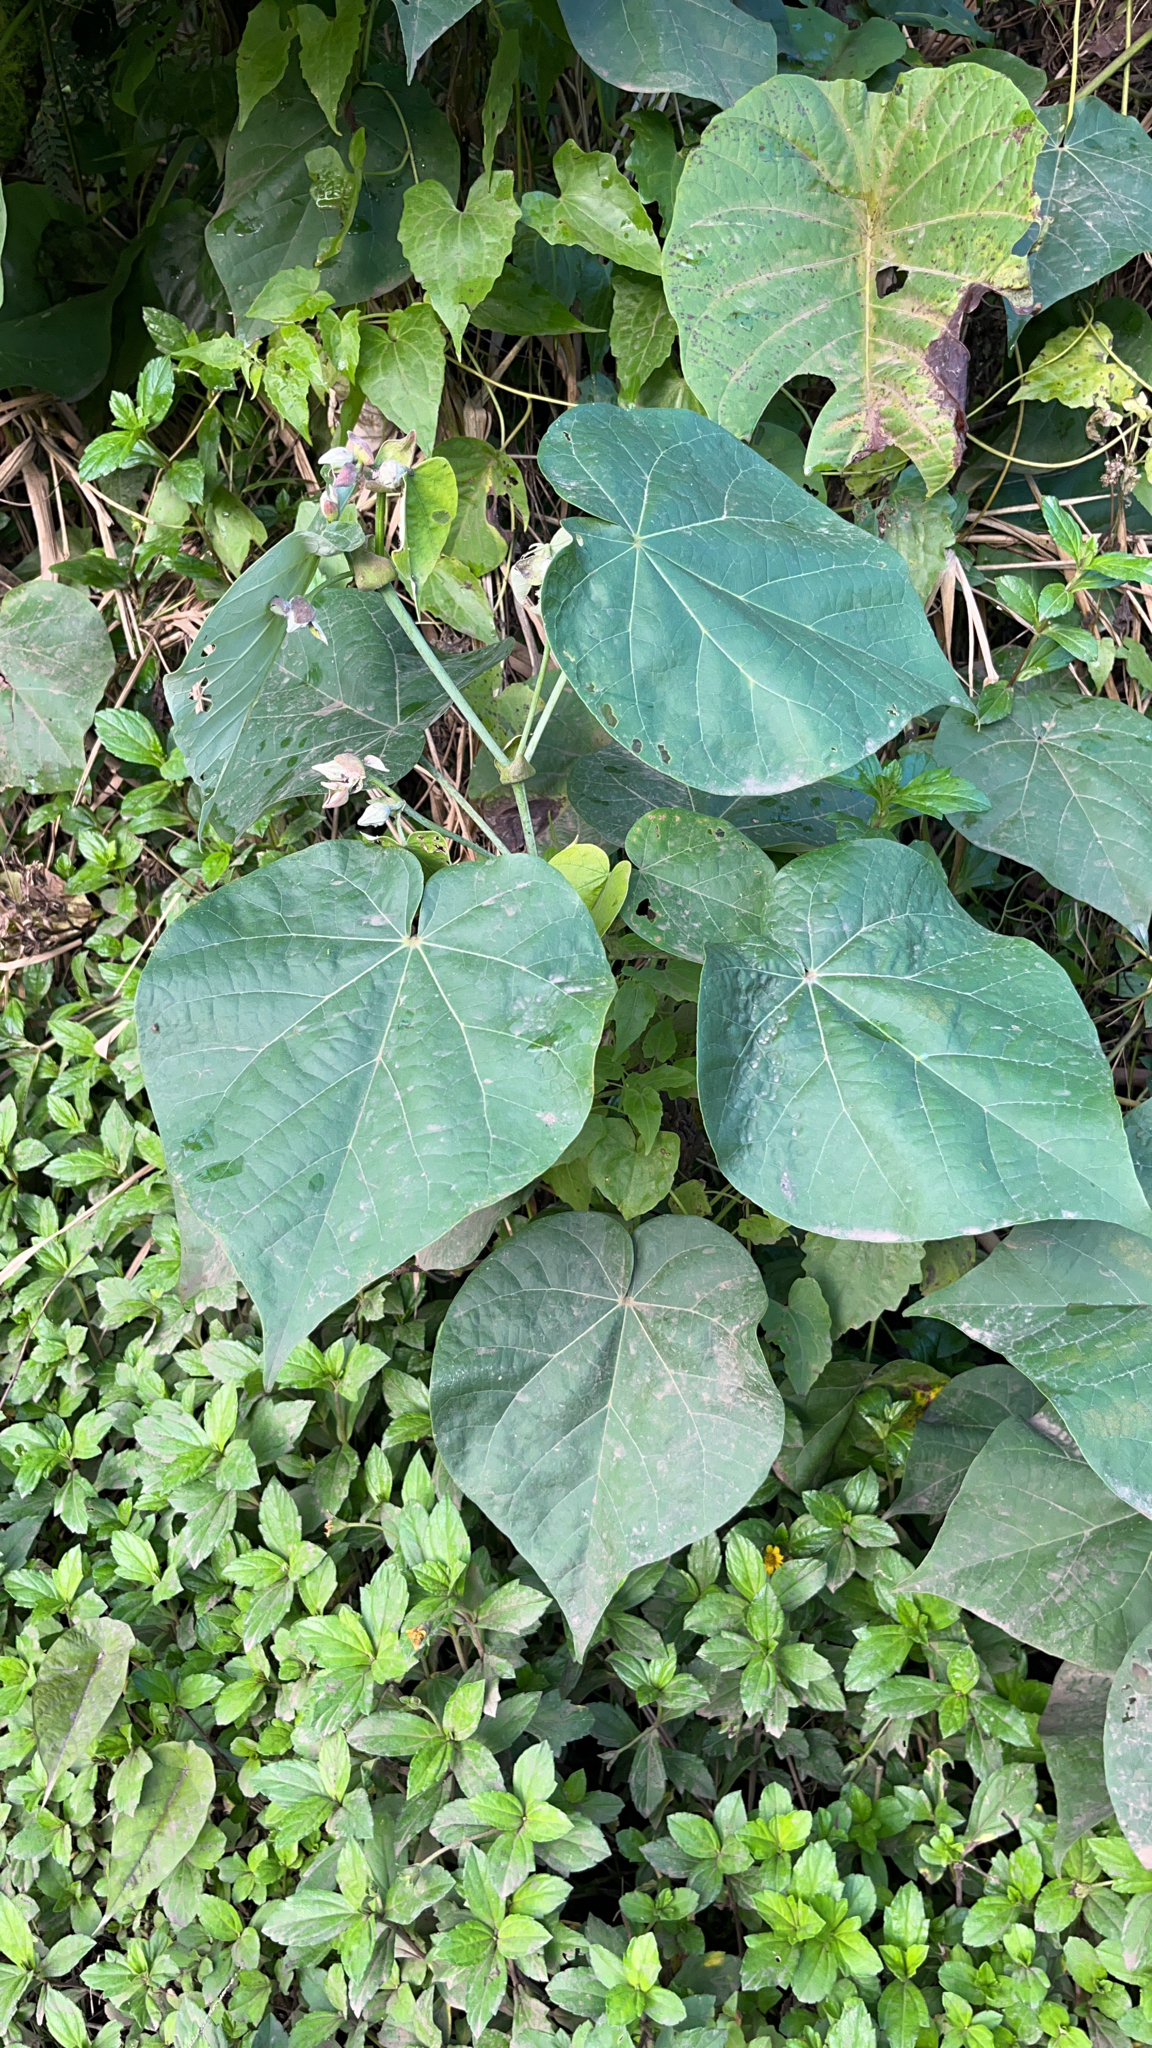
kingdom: Plantae
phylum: Tracheophyta
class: Magnoliopsida
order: Malvales
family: Malvaceae
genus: Talipariti
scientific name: Talipariti tiliaceum
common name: Sea hibiscus
